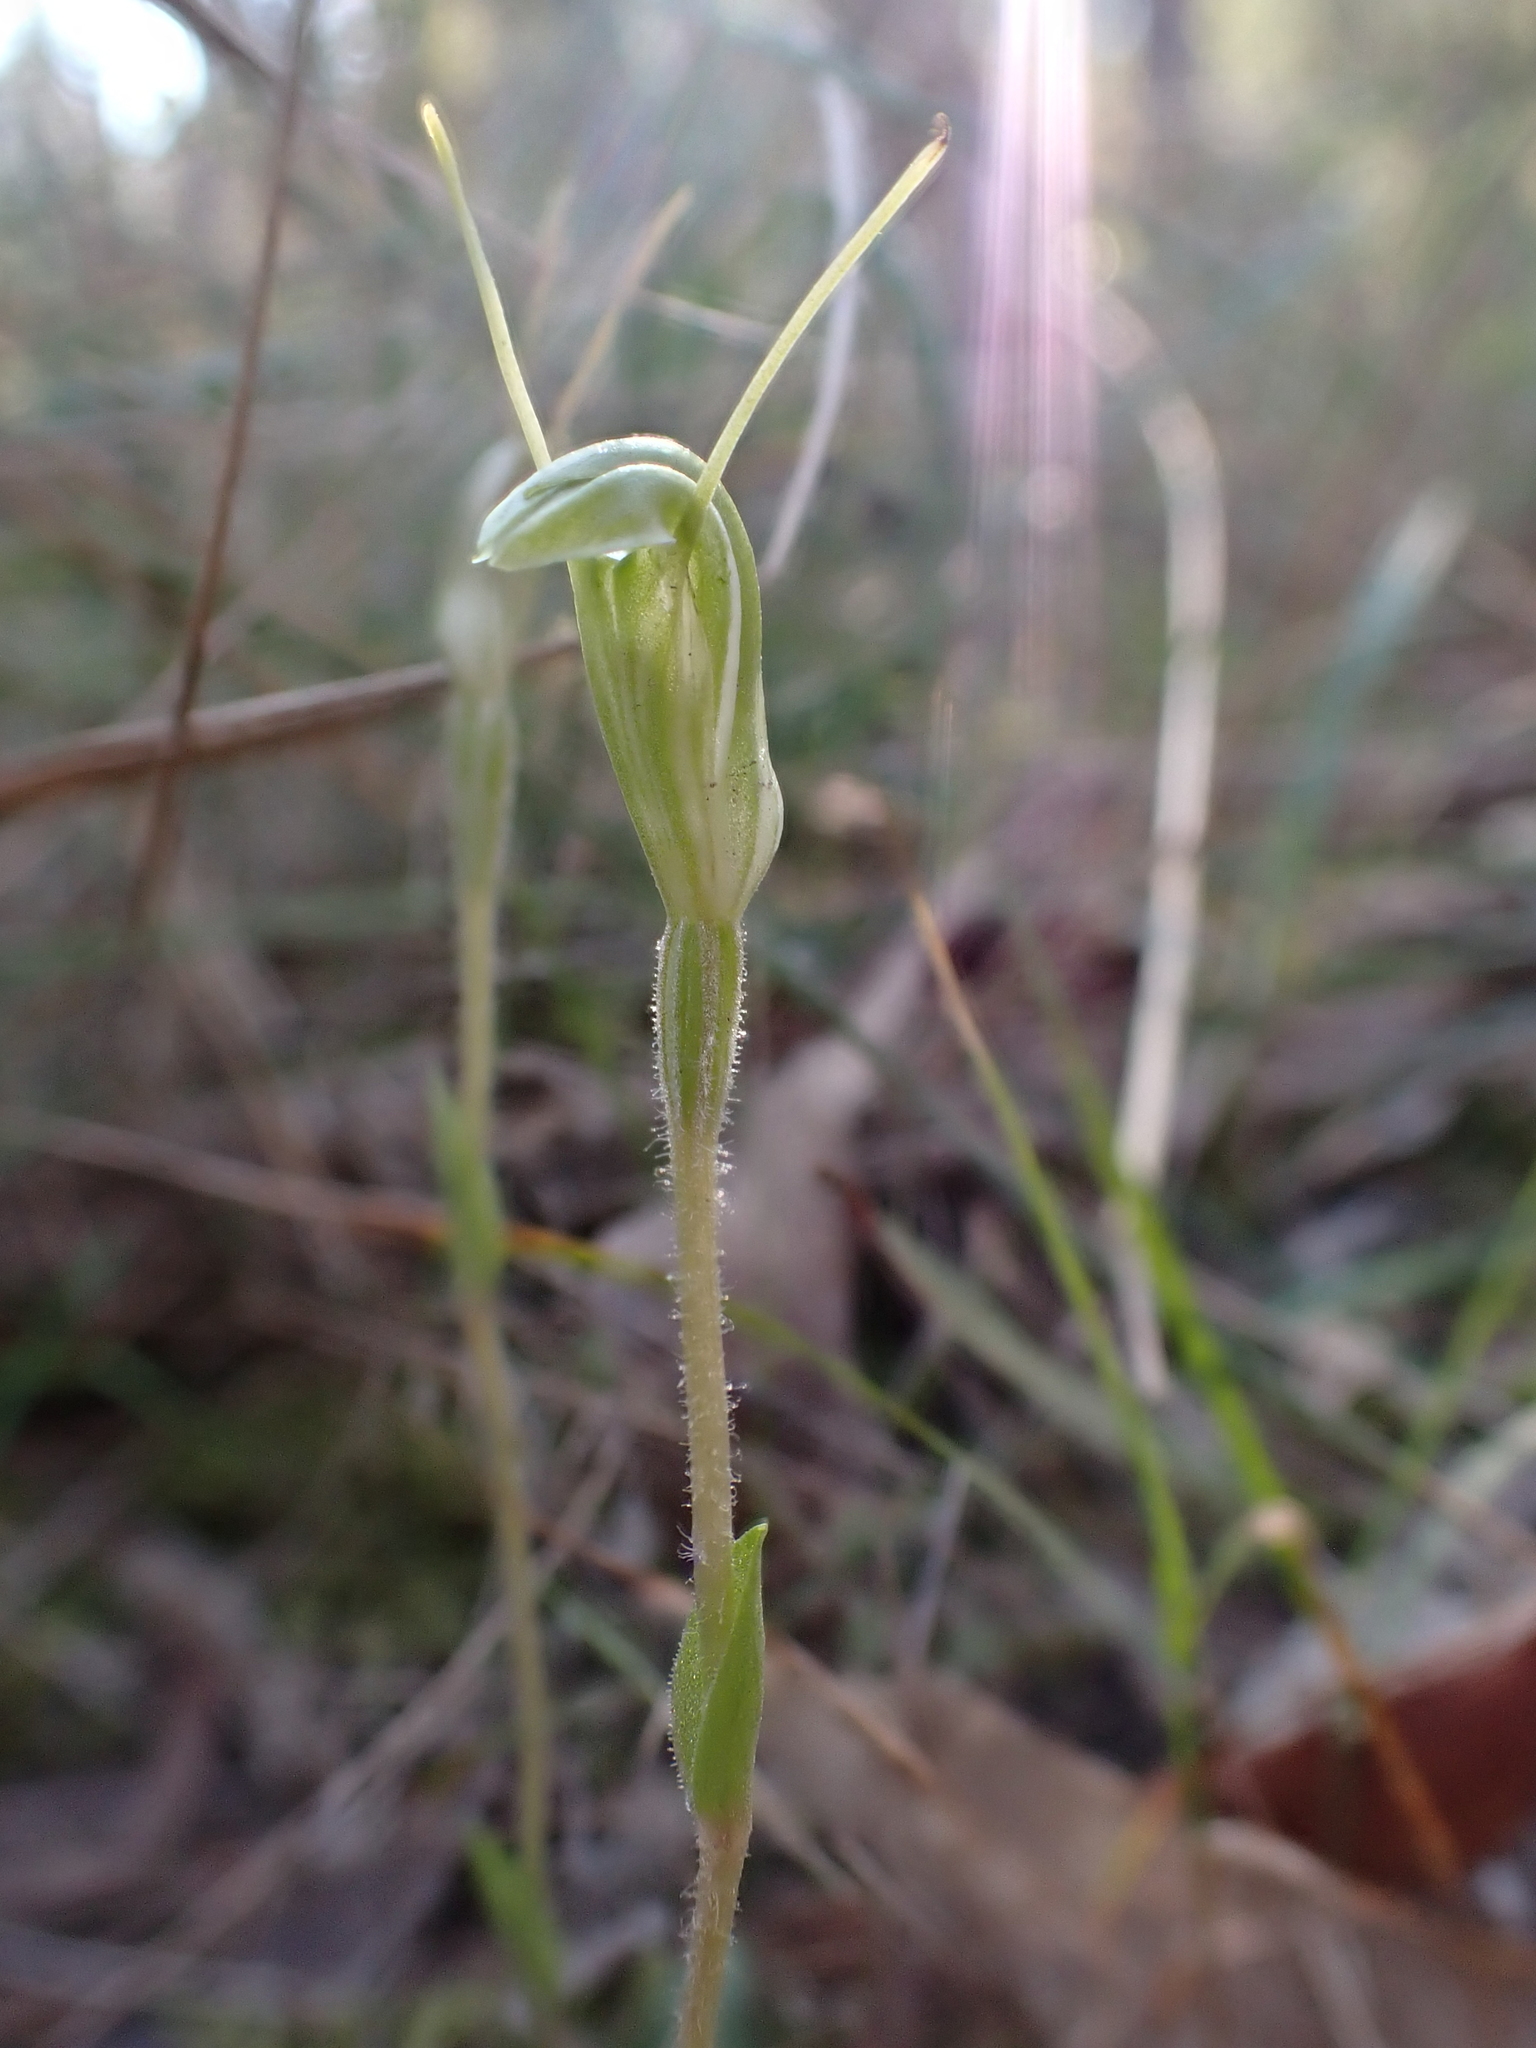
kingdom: Plantae
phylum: Tracheophyta
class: Liliopsida
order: Asparagales
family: Orchidaceae
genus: Pterostylis
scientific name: Pterostylis nana
